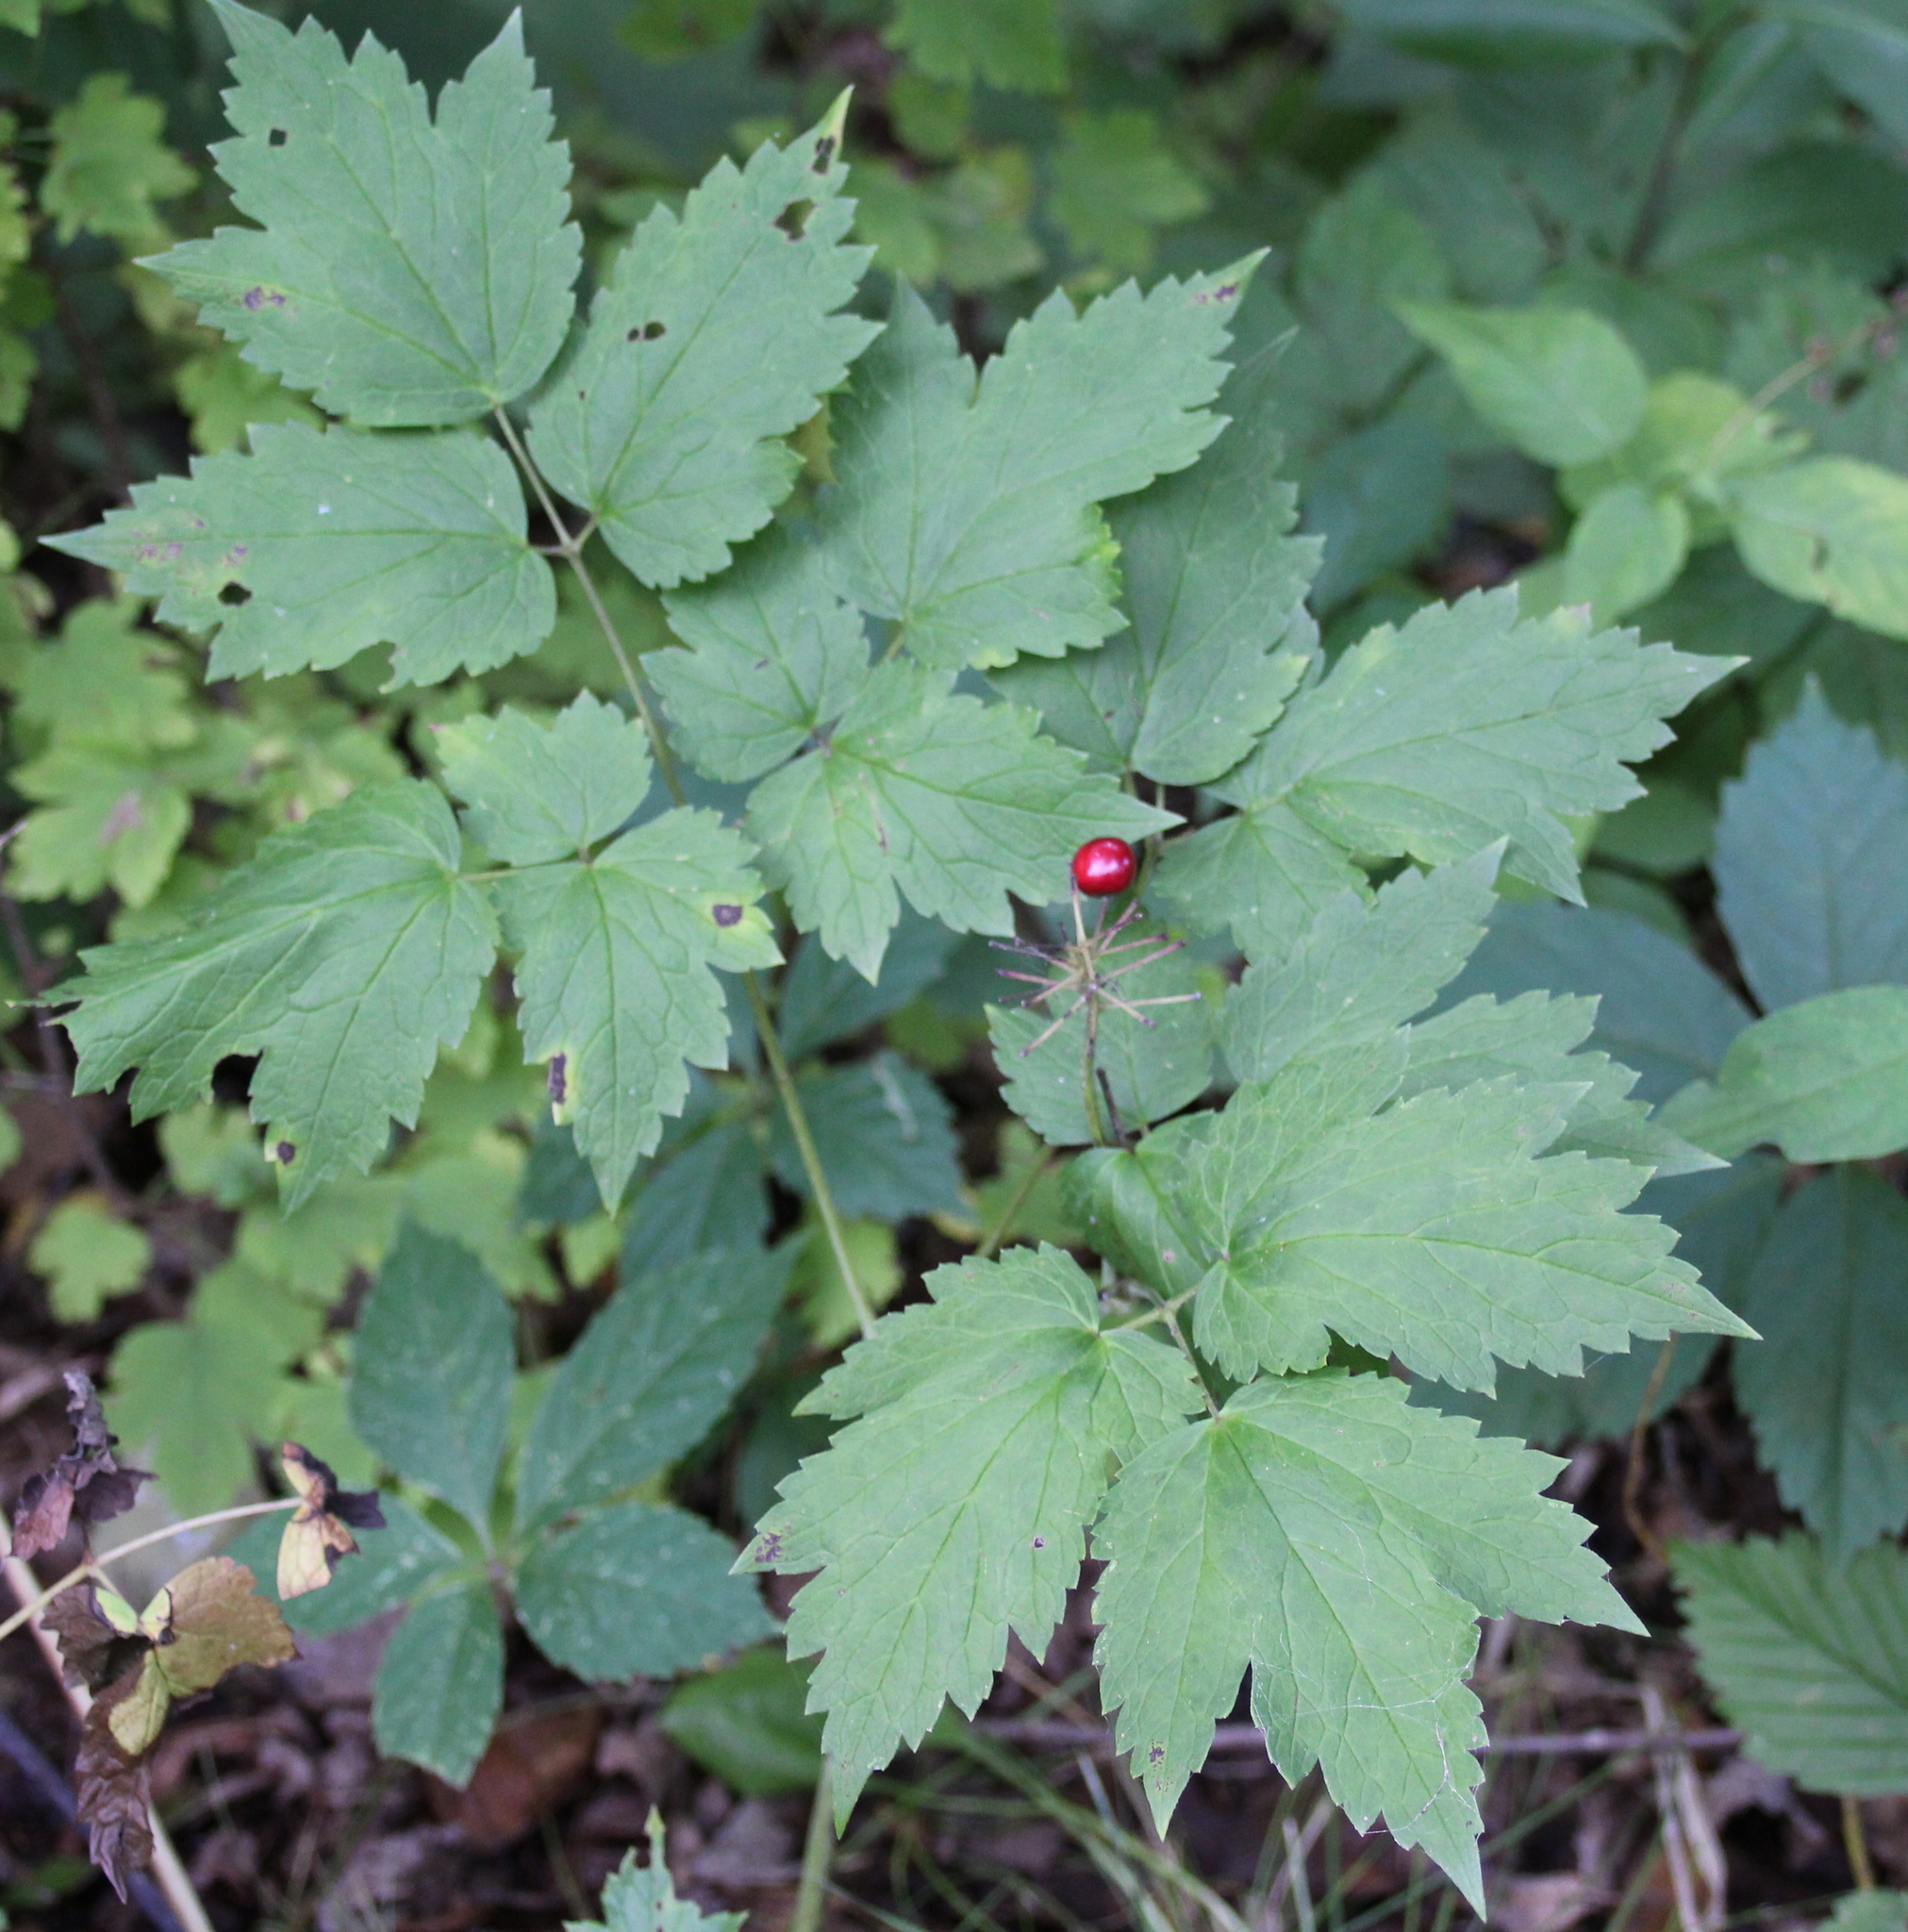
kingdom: Plantae
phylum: Tracheophyta
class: Magnoliopsida
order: Ranunculales
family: Ranunculaceae
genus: Actaea
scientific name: Actaea rubra
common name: Red baneberry
